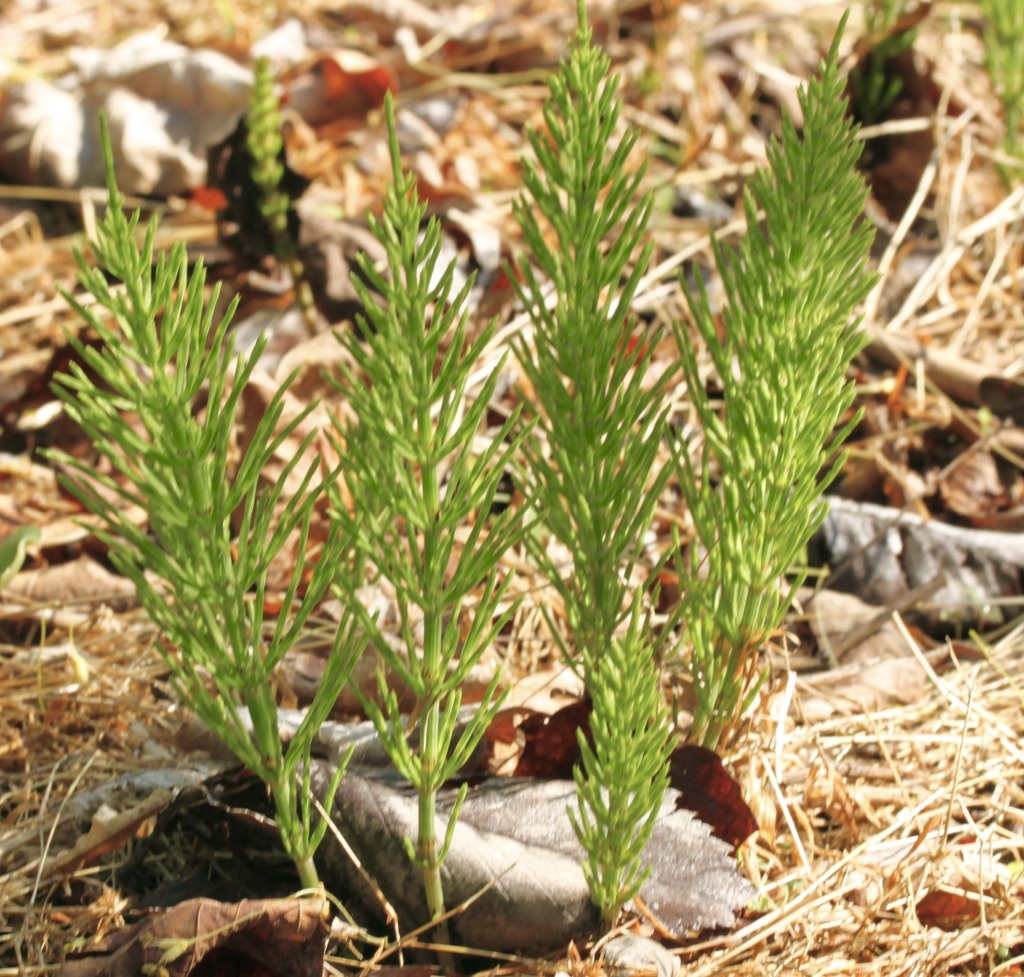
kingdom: Plantae
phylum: Tracheophyta
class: Polypodiopsida
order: Equisetales
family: Equisetaceae
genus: Equisetum
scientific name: Equisetum arvense
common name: Field horsetail
